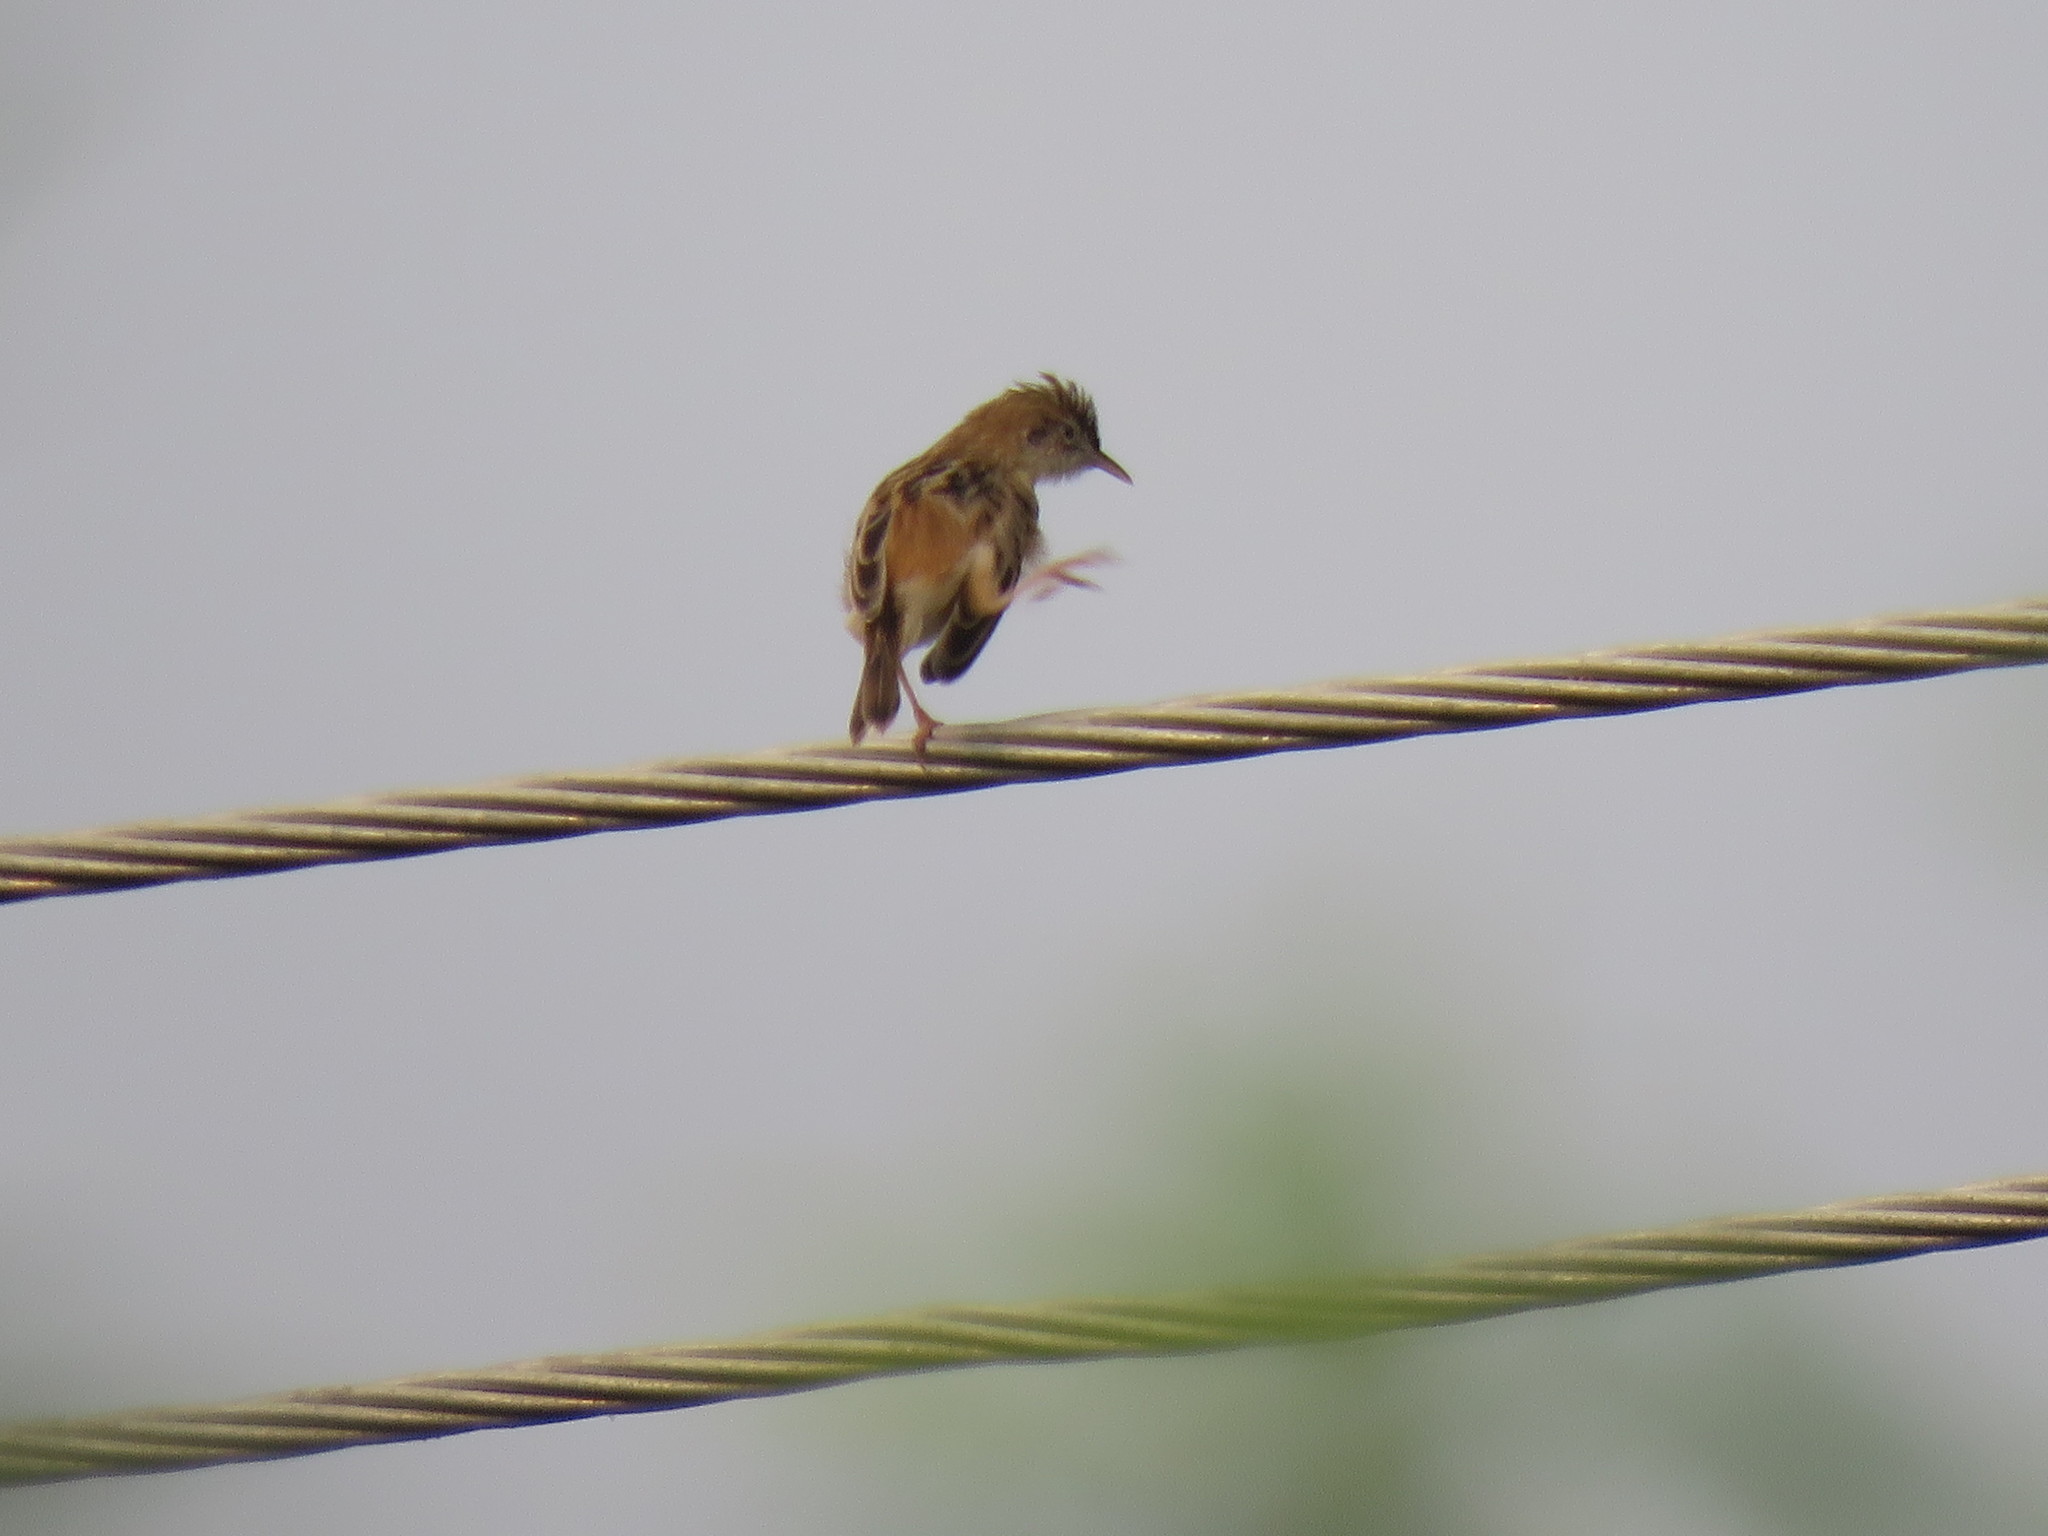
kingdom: Animalia
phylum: Chordata
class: Aves
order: Passeriformes
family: Cisticolidae
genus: Cisticola
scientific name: Cisticola juncidis
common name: Zitting cisticola
